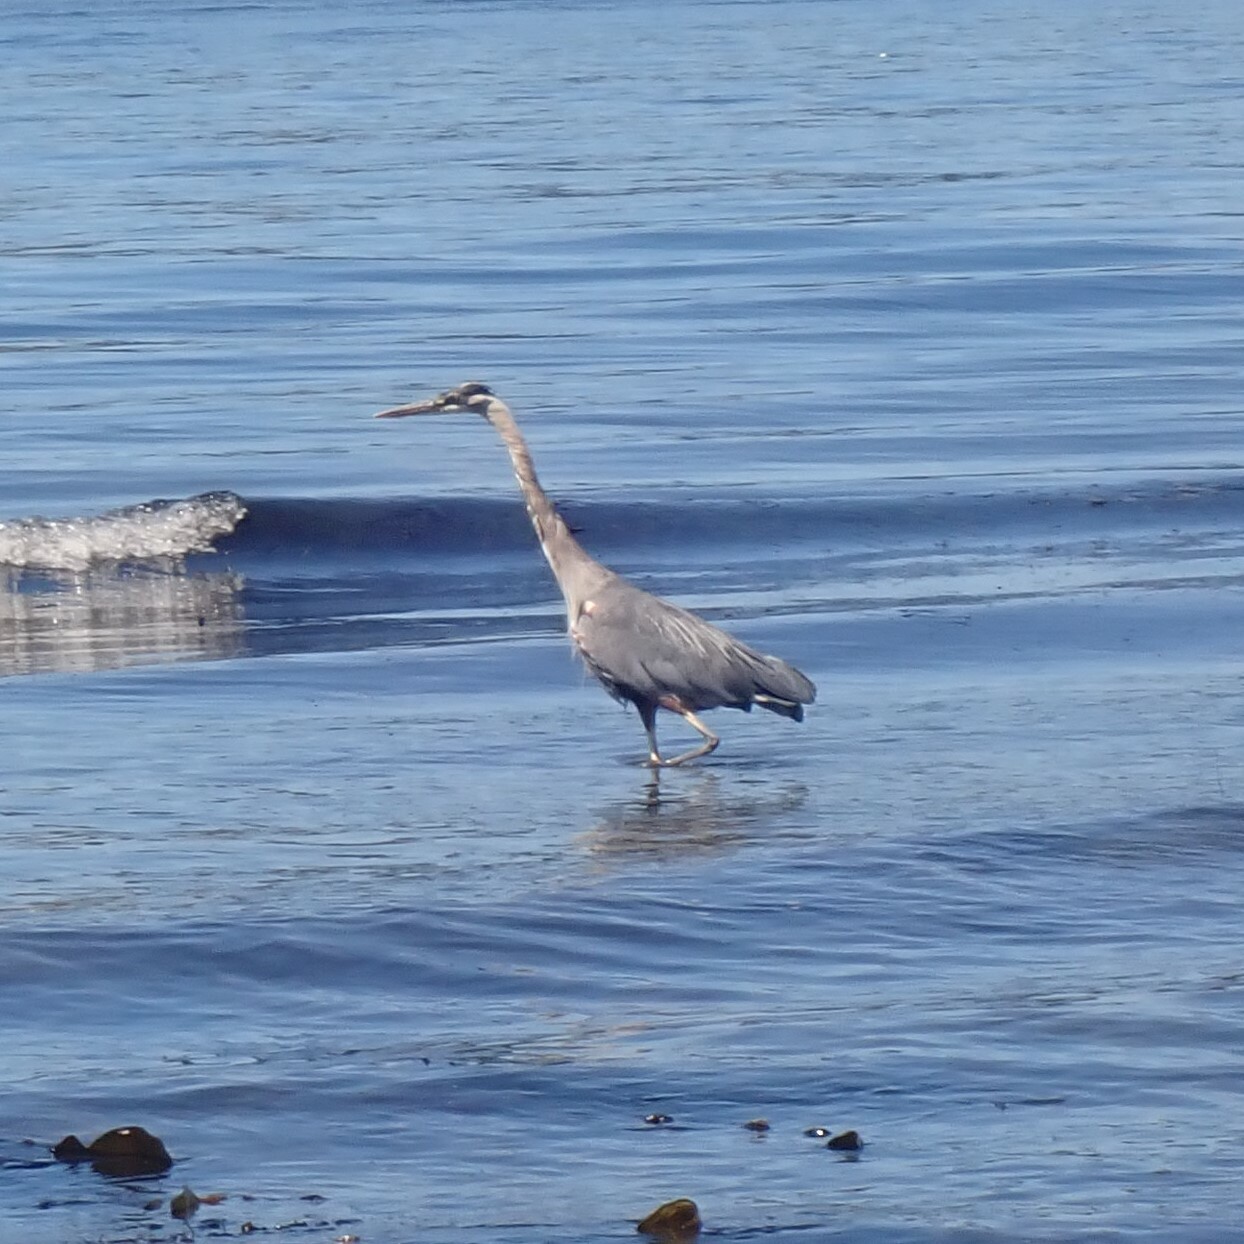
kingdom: Animalia
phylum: Chordata
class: Aves
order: Pelecaniformes
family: Ardeidae
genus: Ardea
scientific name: Ardea herodias
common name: Great blue heron
